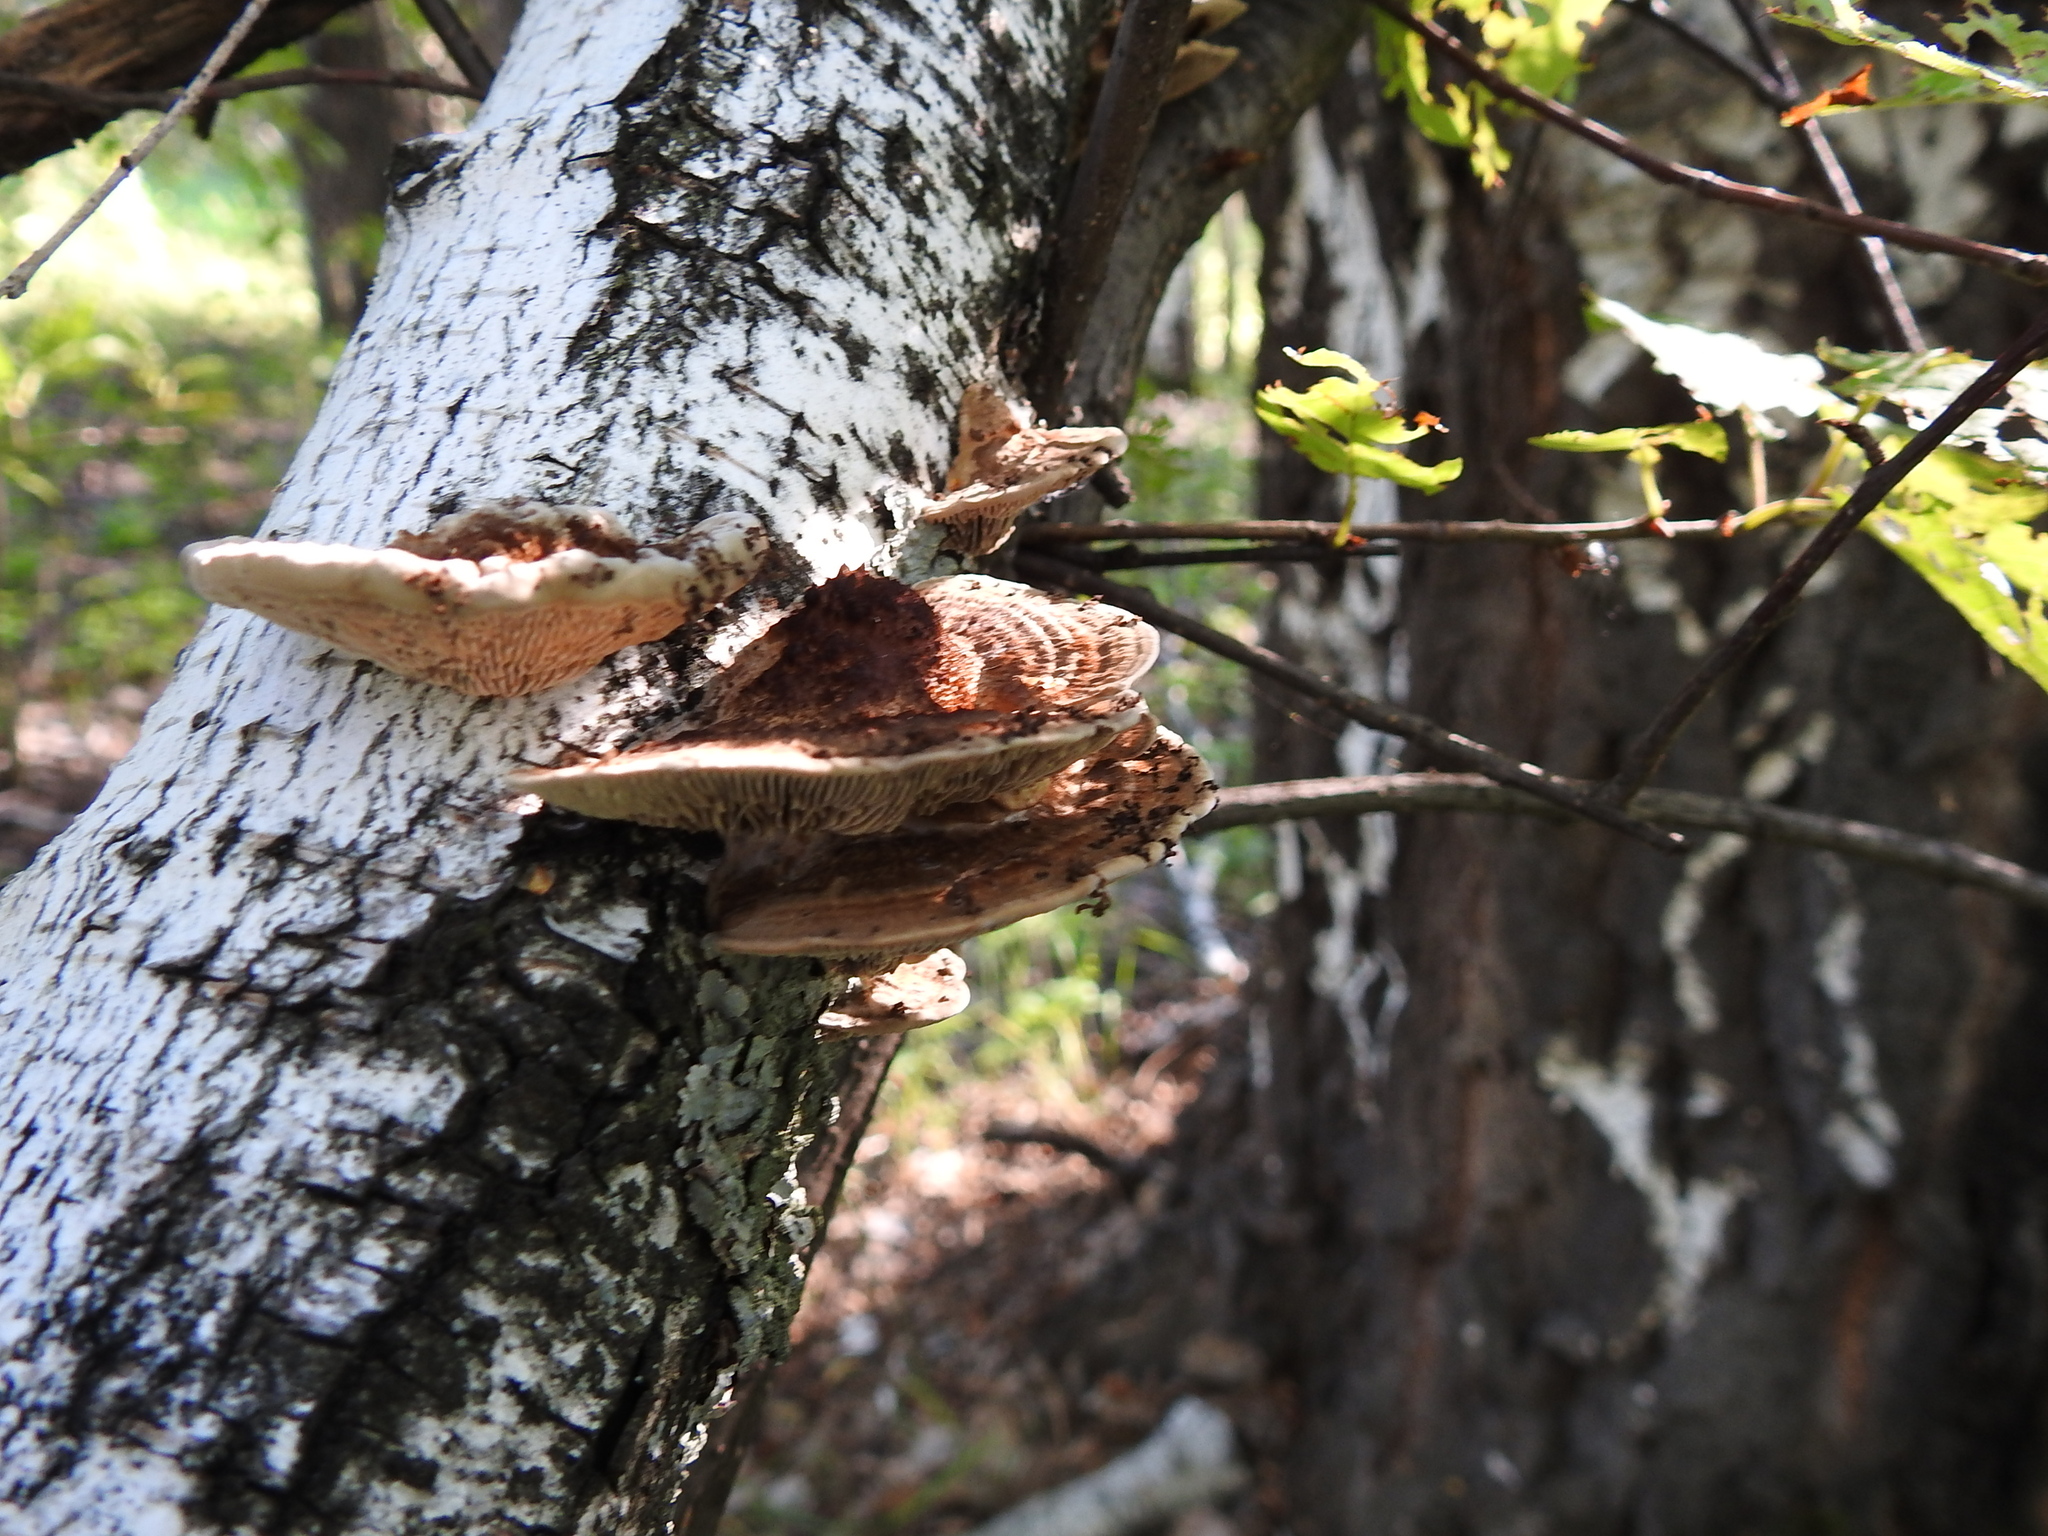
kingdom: Fungi
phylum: Basidiomycota
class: Agaricomycetes
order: Polyporales
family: Polyporaceae
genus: Daedaleopsis
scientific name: Daedaleopsis confragosa
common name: Blushing bracket
